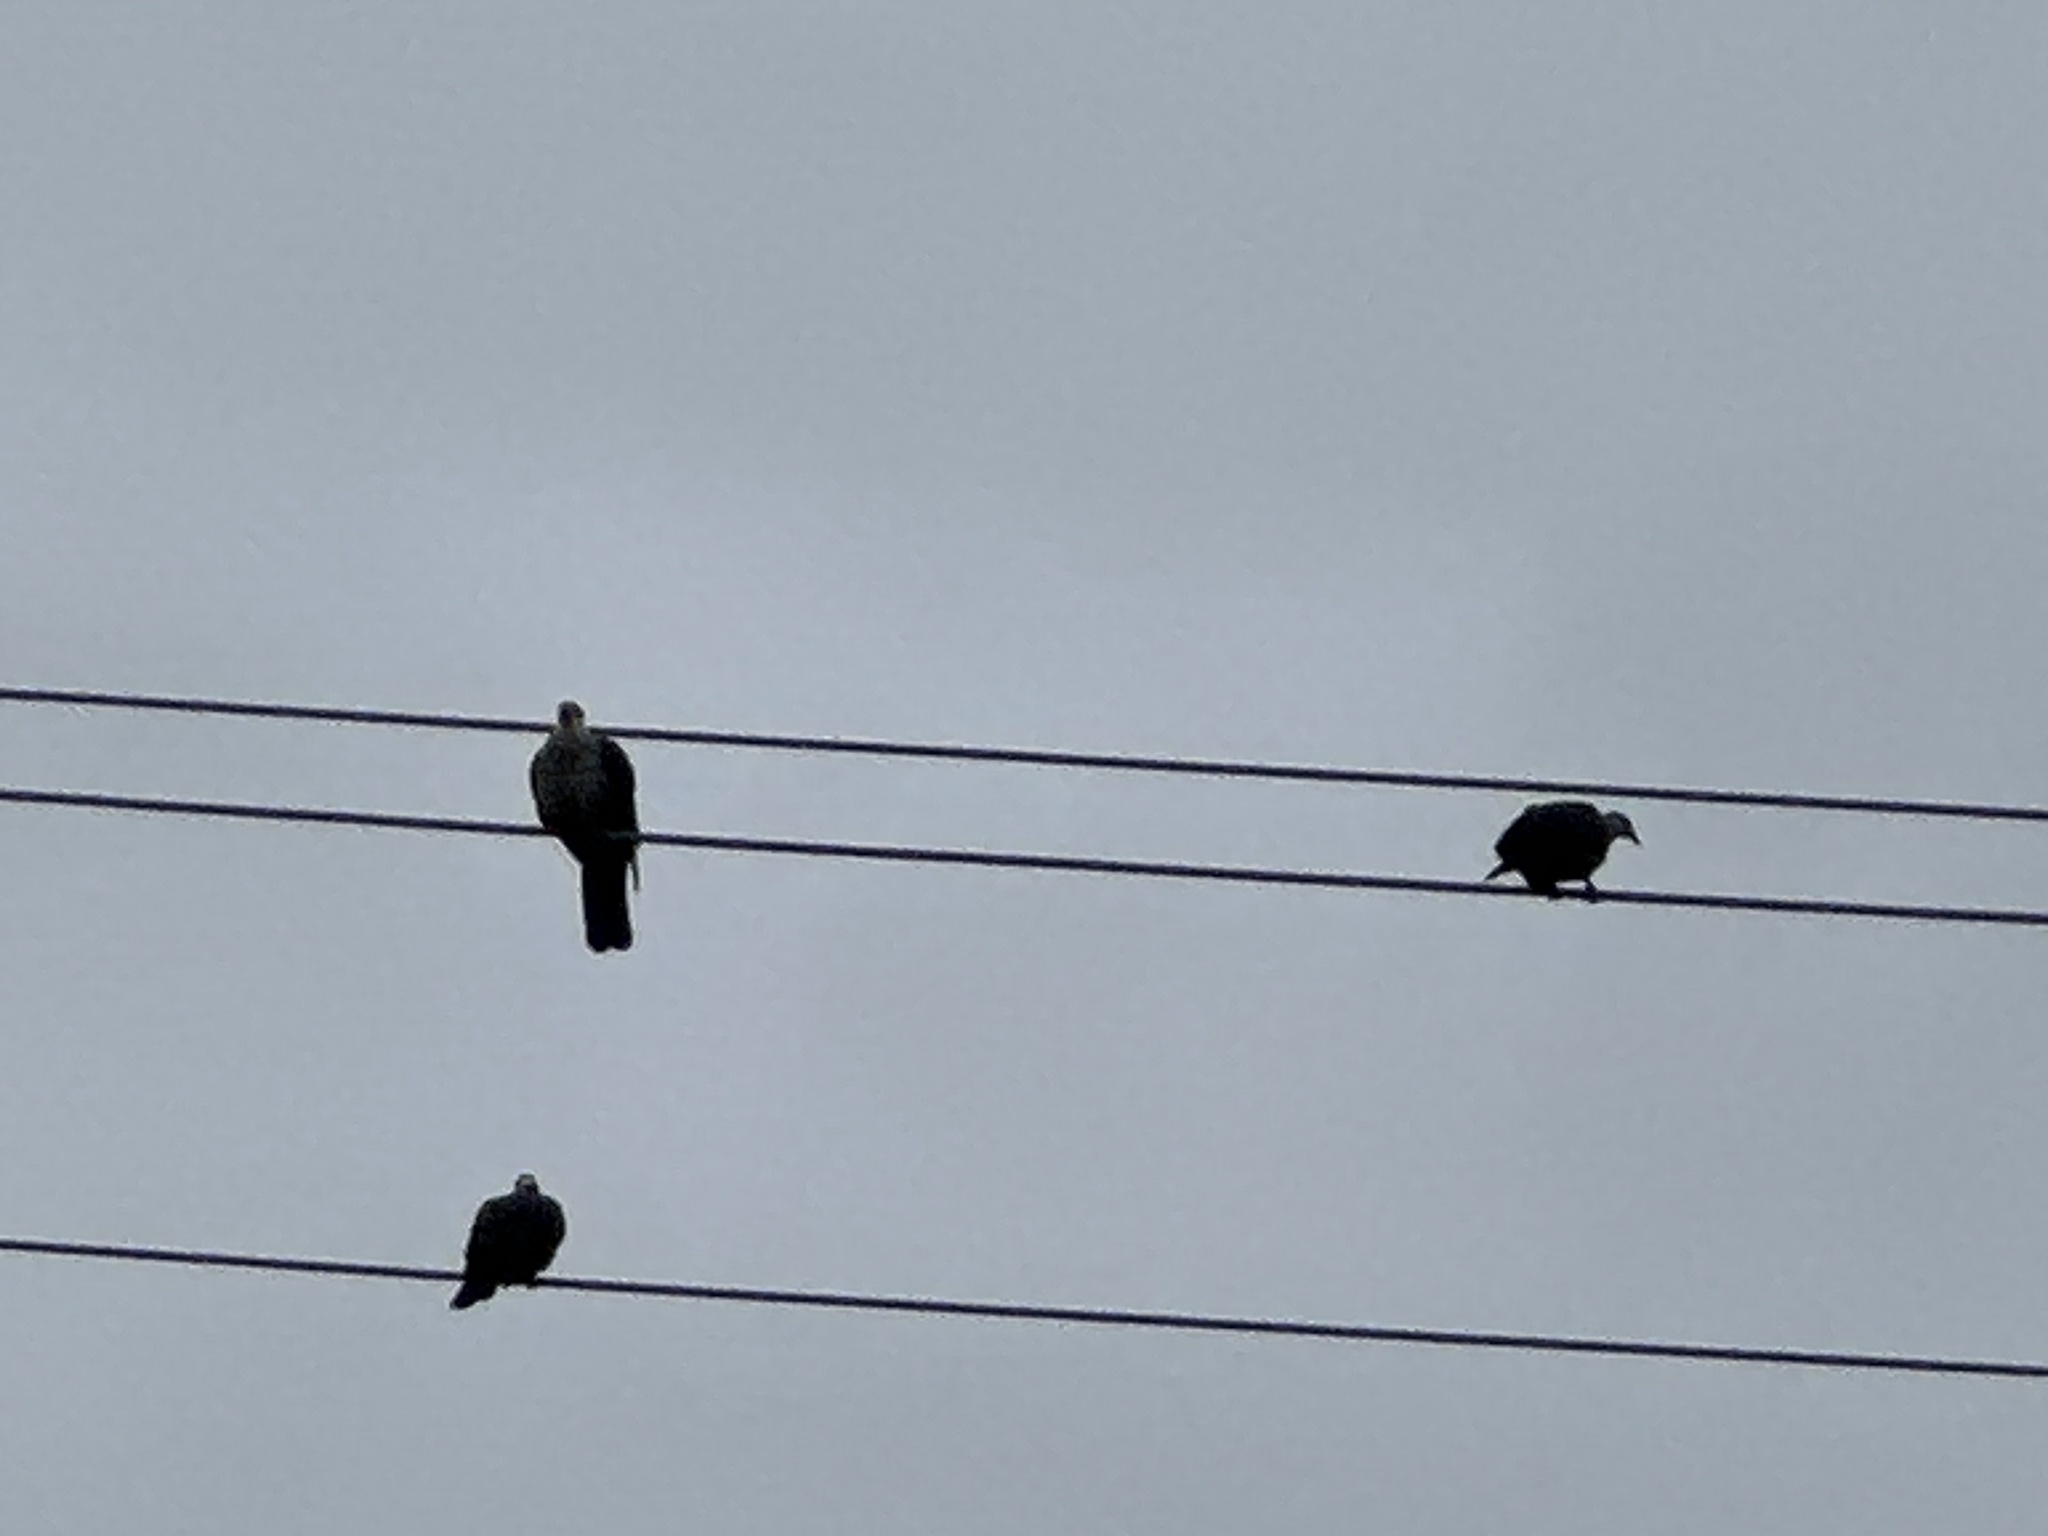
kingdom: Animalia
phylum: Chordata
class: Aves
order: Columbiformes
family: Columbidae
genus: Columba
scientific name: Columba leucomela
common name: White-headed pigeon
